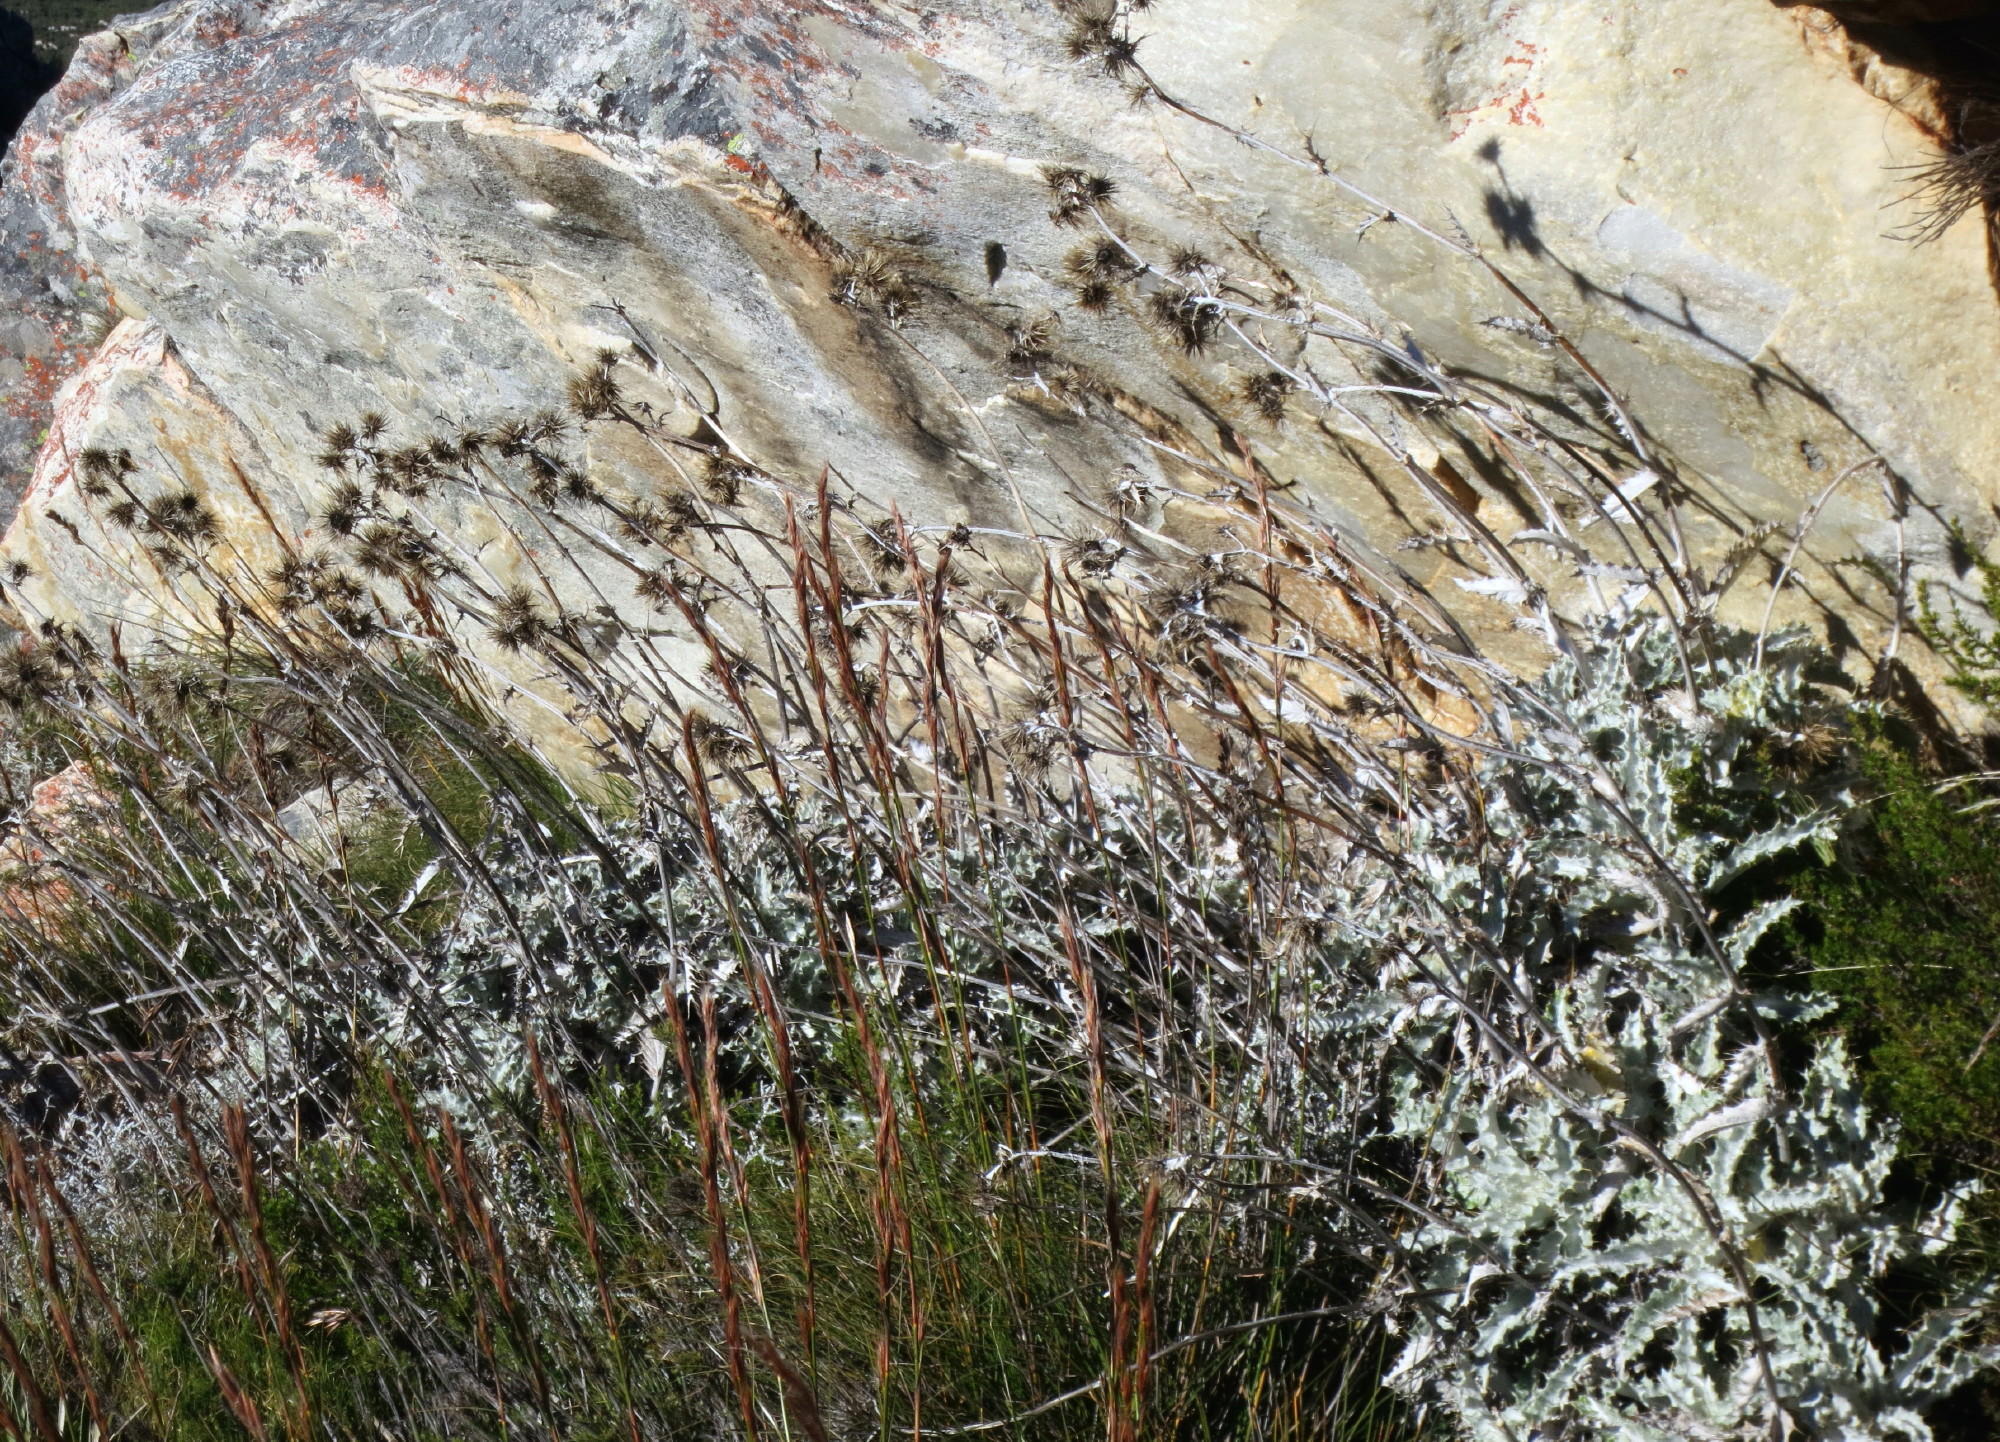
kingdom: Plantae
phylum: Tracheophyta
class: Magnoliopsida
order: Asterales
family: Asteraceae
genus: Berkheya
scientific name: Berkheya francisci
